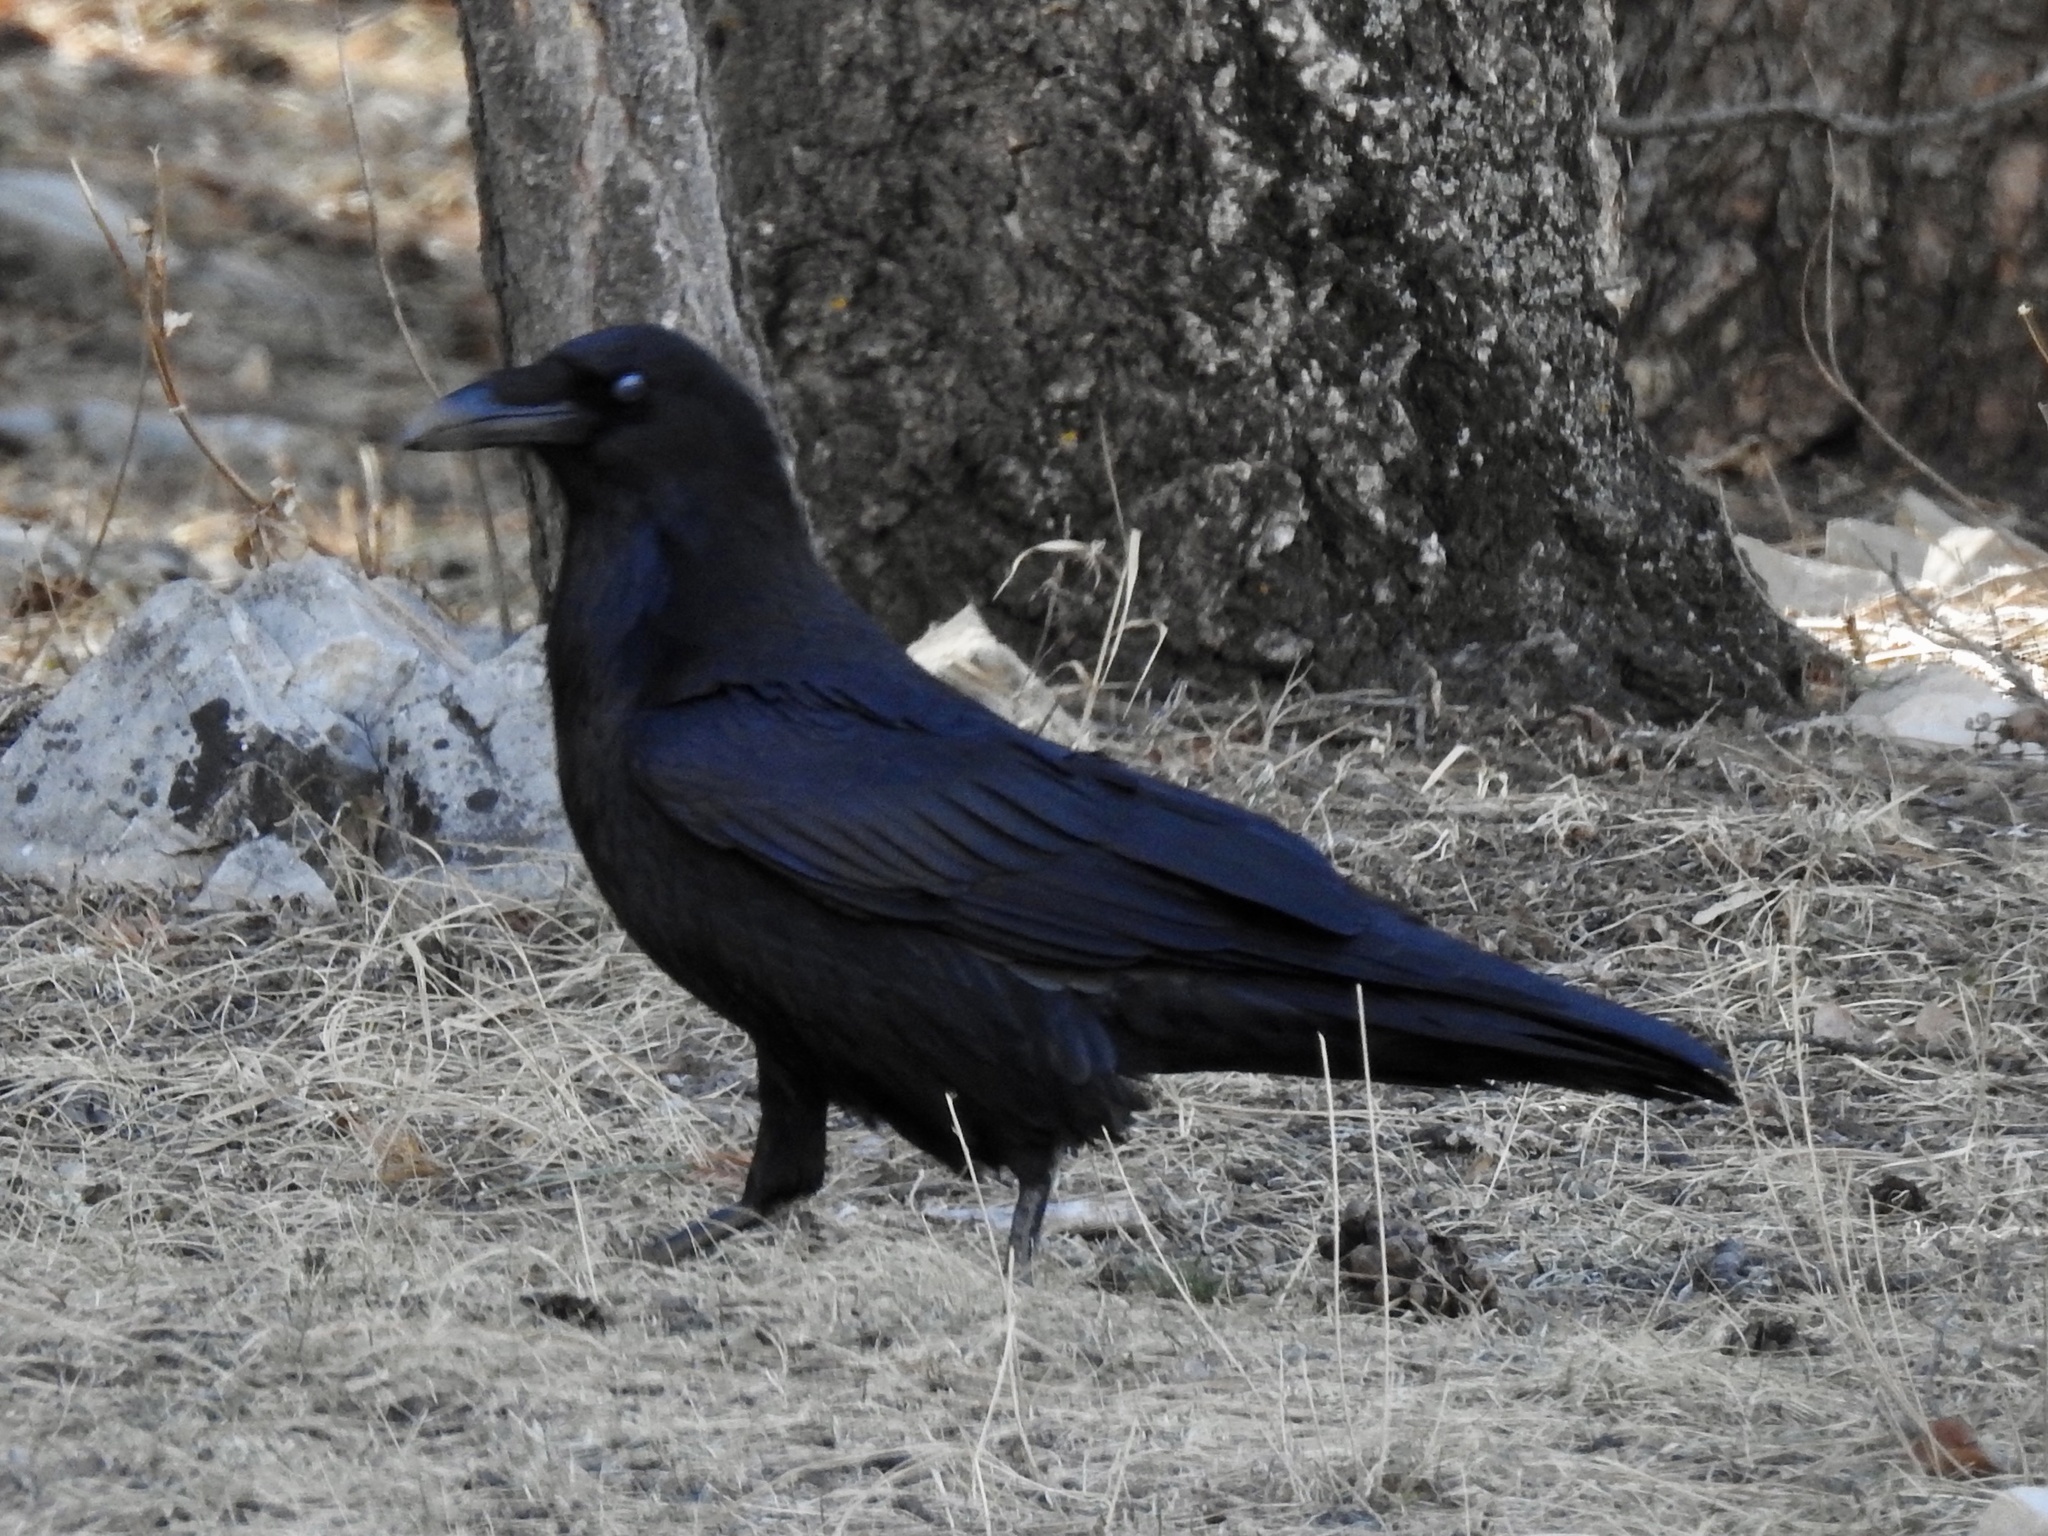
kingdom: Animalia
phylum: Chordata
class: Aves
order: Passeriformes
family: Corvidae
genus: Corvus
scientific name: Corvus corax
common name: Common raven
